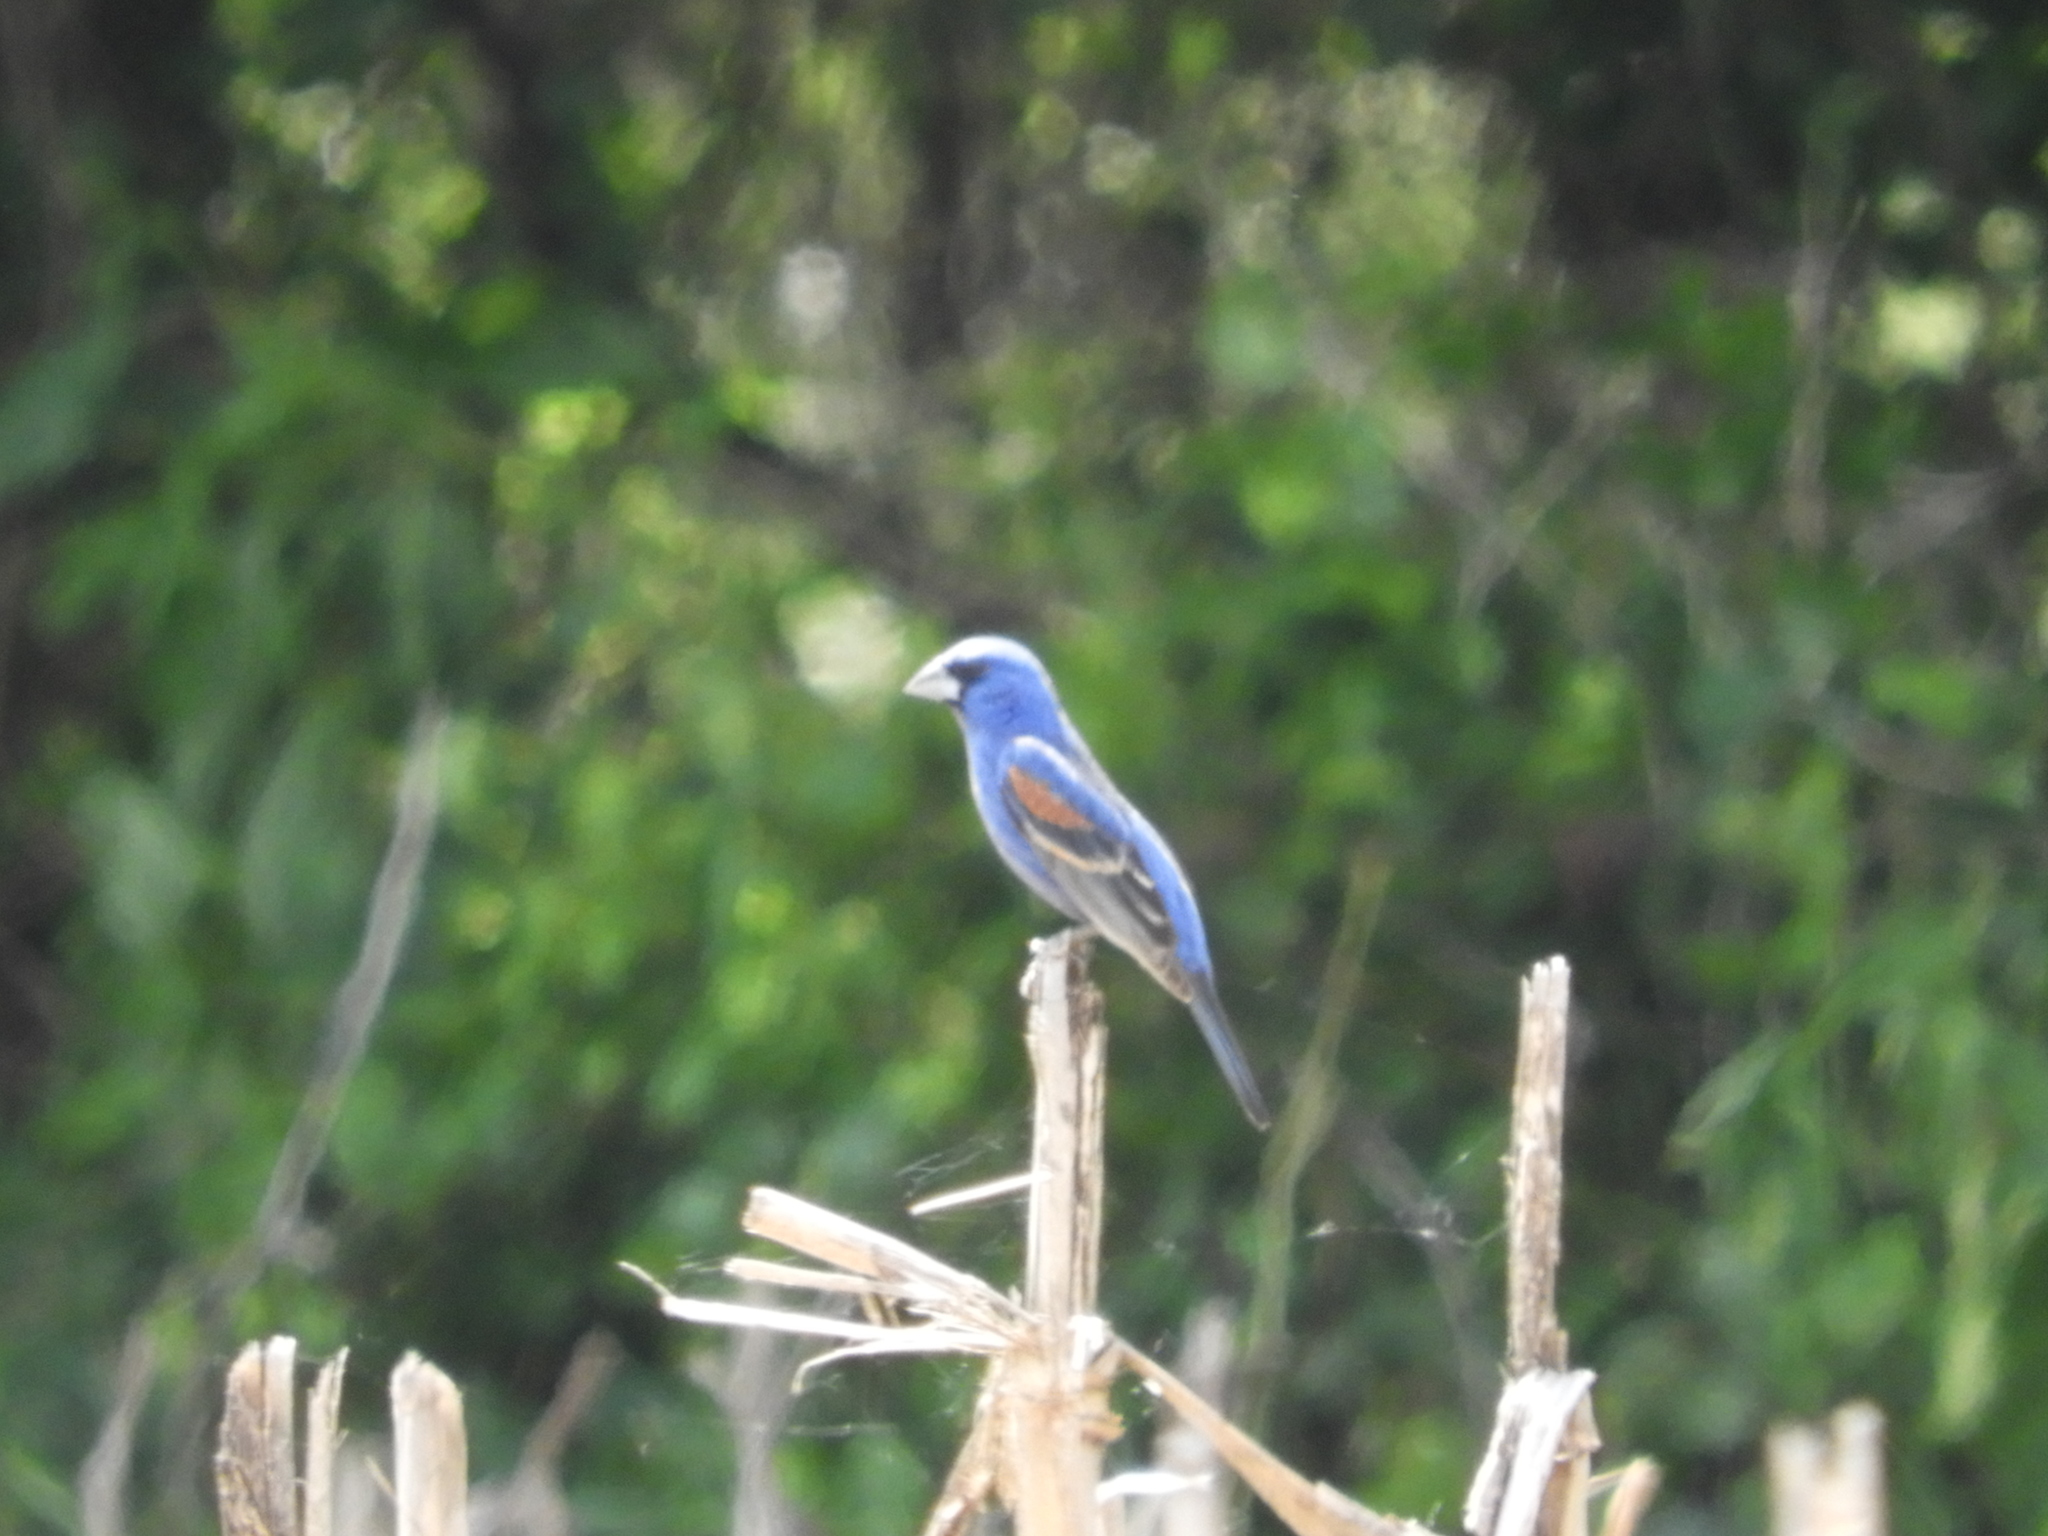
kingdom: Animalia
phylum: Chordata
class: Aves
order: Passeriformes
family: Cardinalidae
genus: Passerina
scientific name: Passerina caerulea
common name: Blue grosbeak
